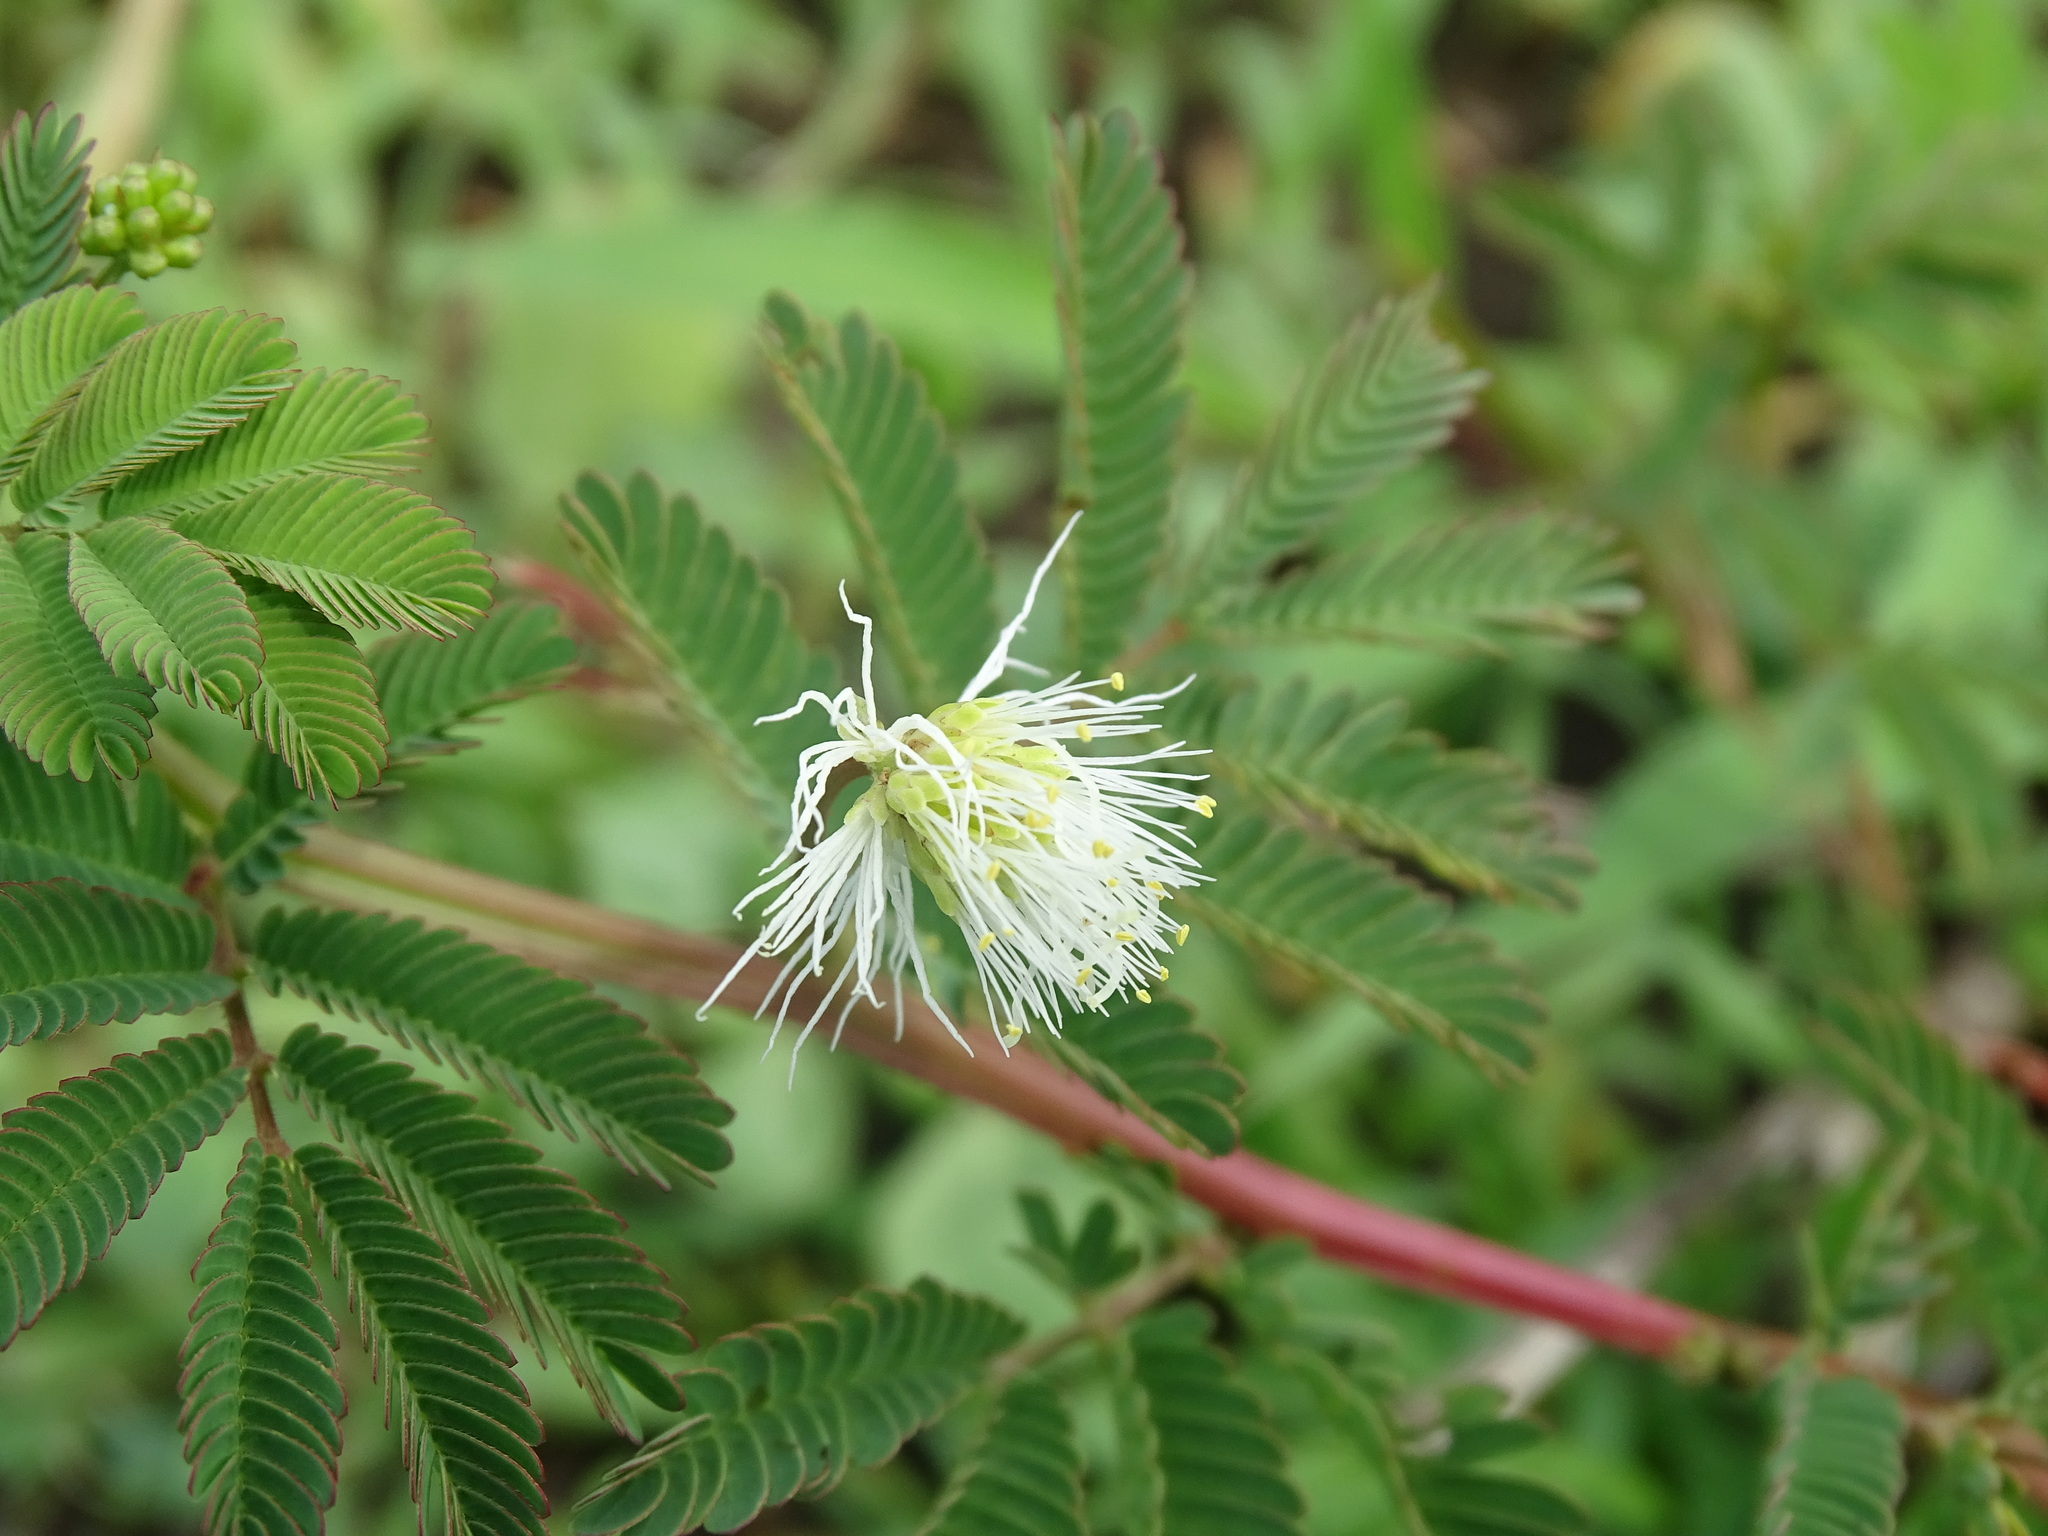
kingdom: Plantae
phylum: Tracheophyta
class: Magnoliopsida
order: Fabales
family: Fabaceae
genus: Desmanthus
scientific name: Desmanthus virgatus
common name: Wild tantan
